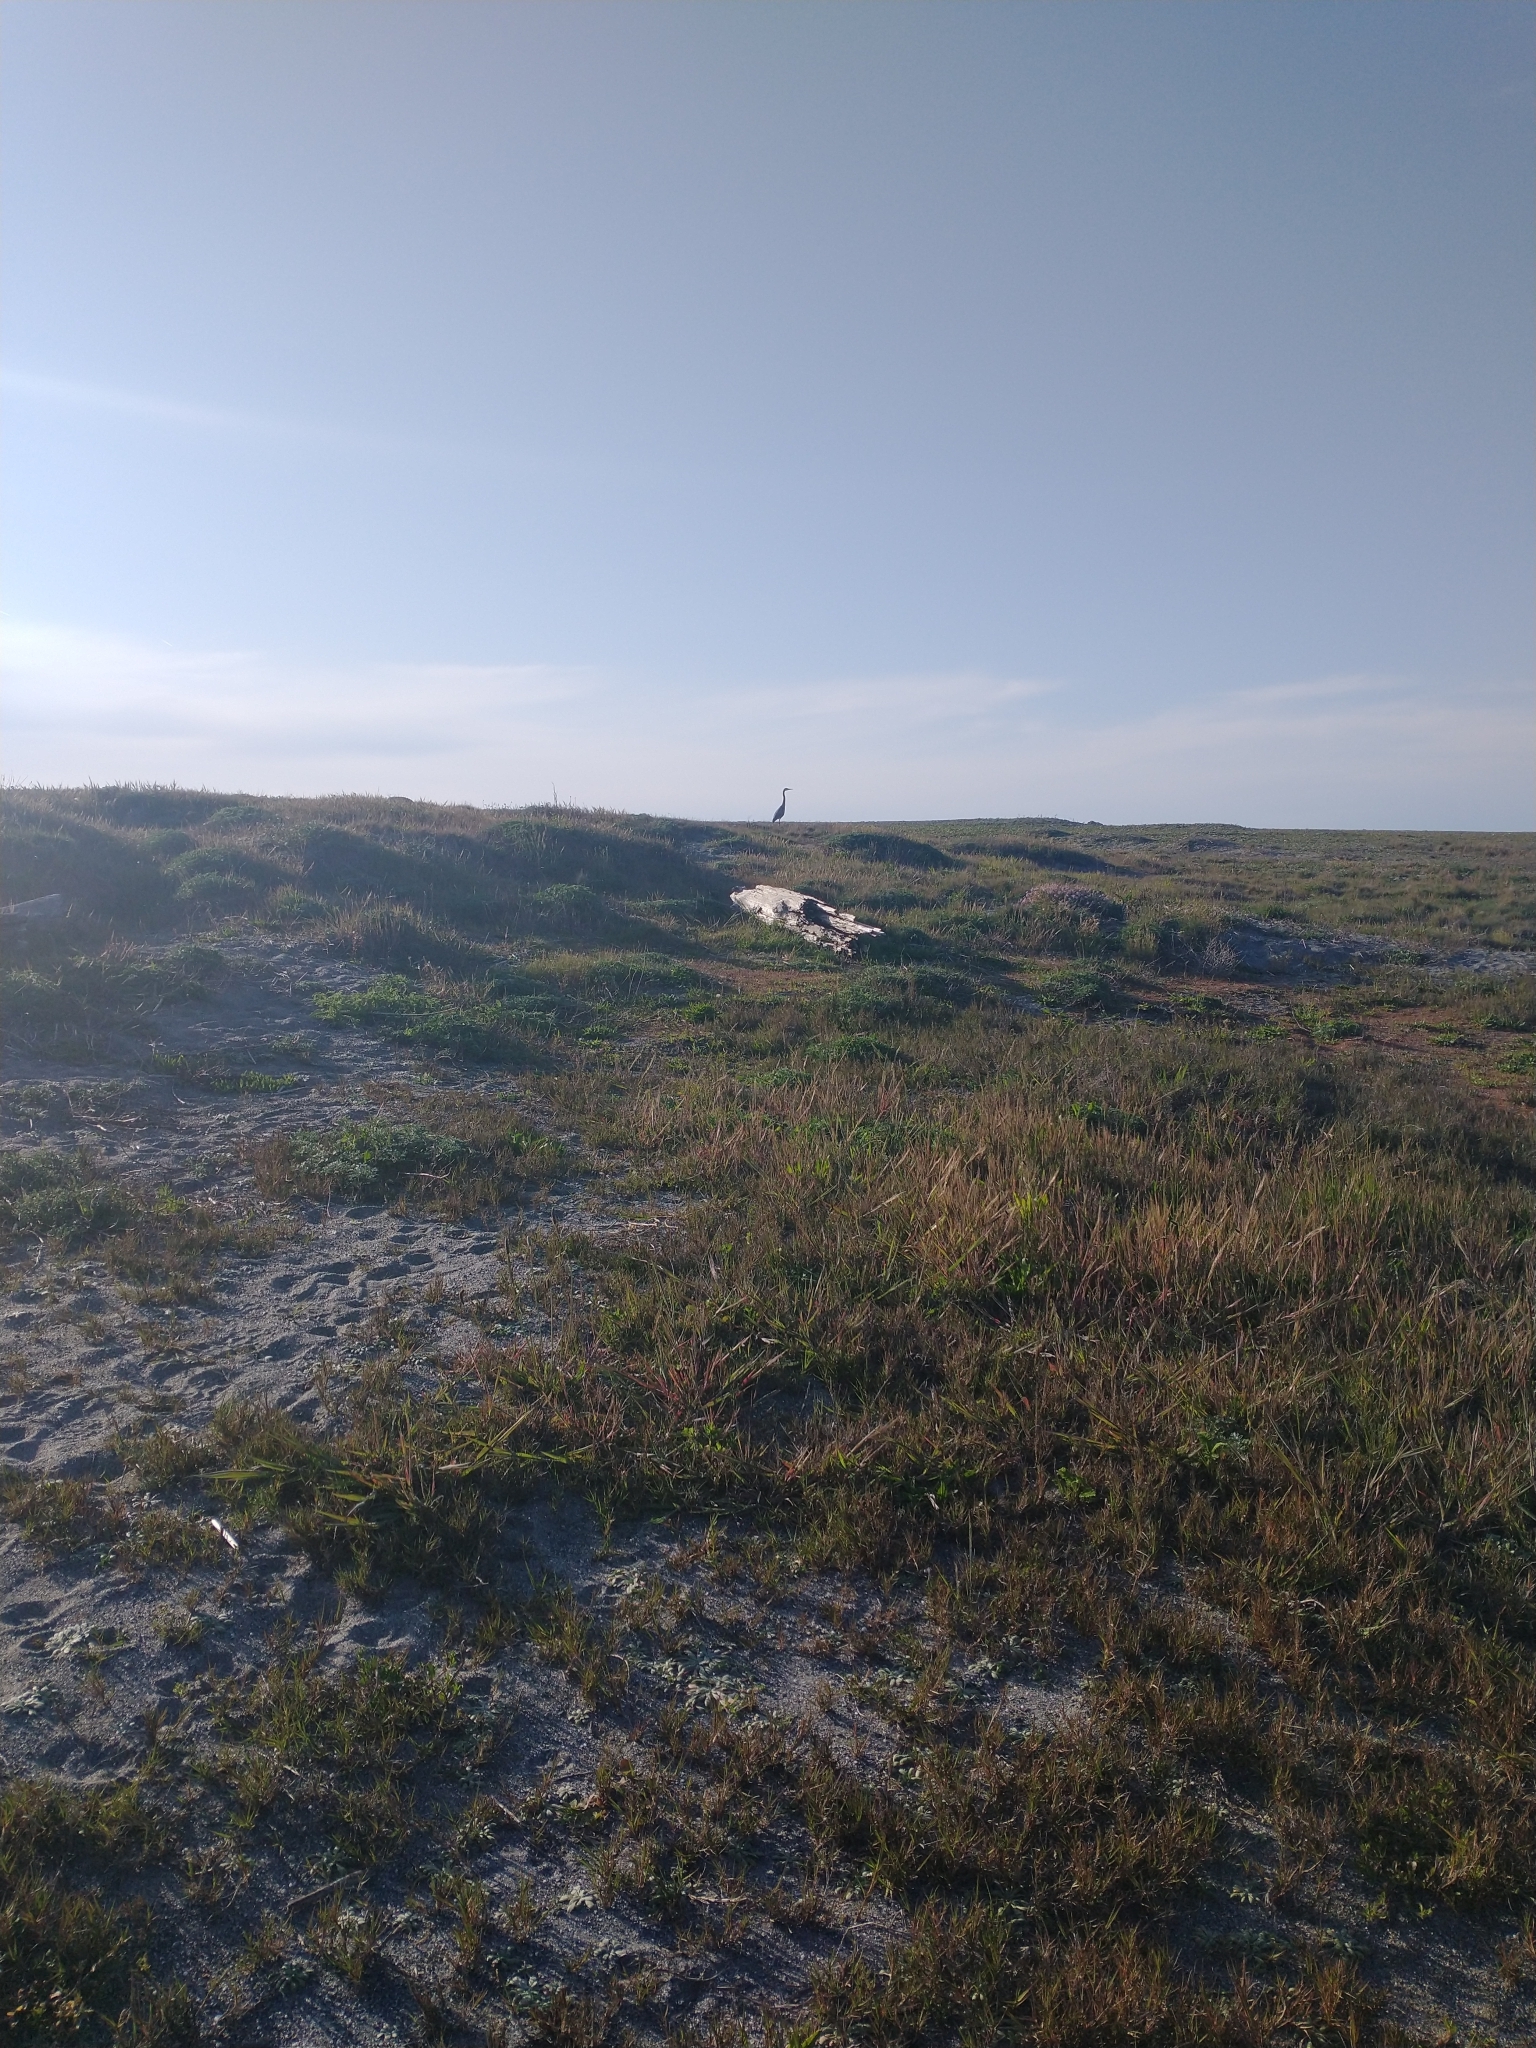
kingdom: Animalia
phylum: Chordata
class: Aves
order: Pelecaniformes
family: Ardeidae
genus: Ardea
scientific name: Ardea herodias
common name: Great blue heron
